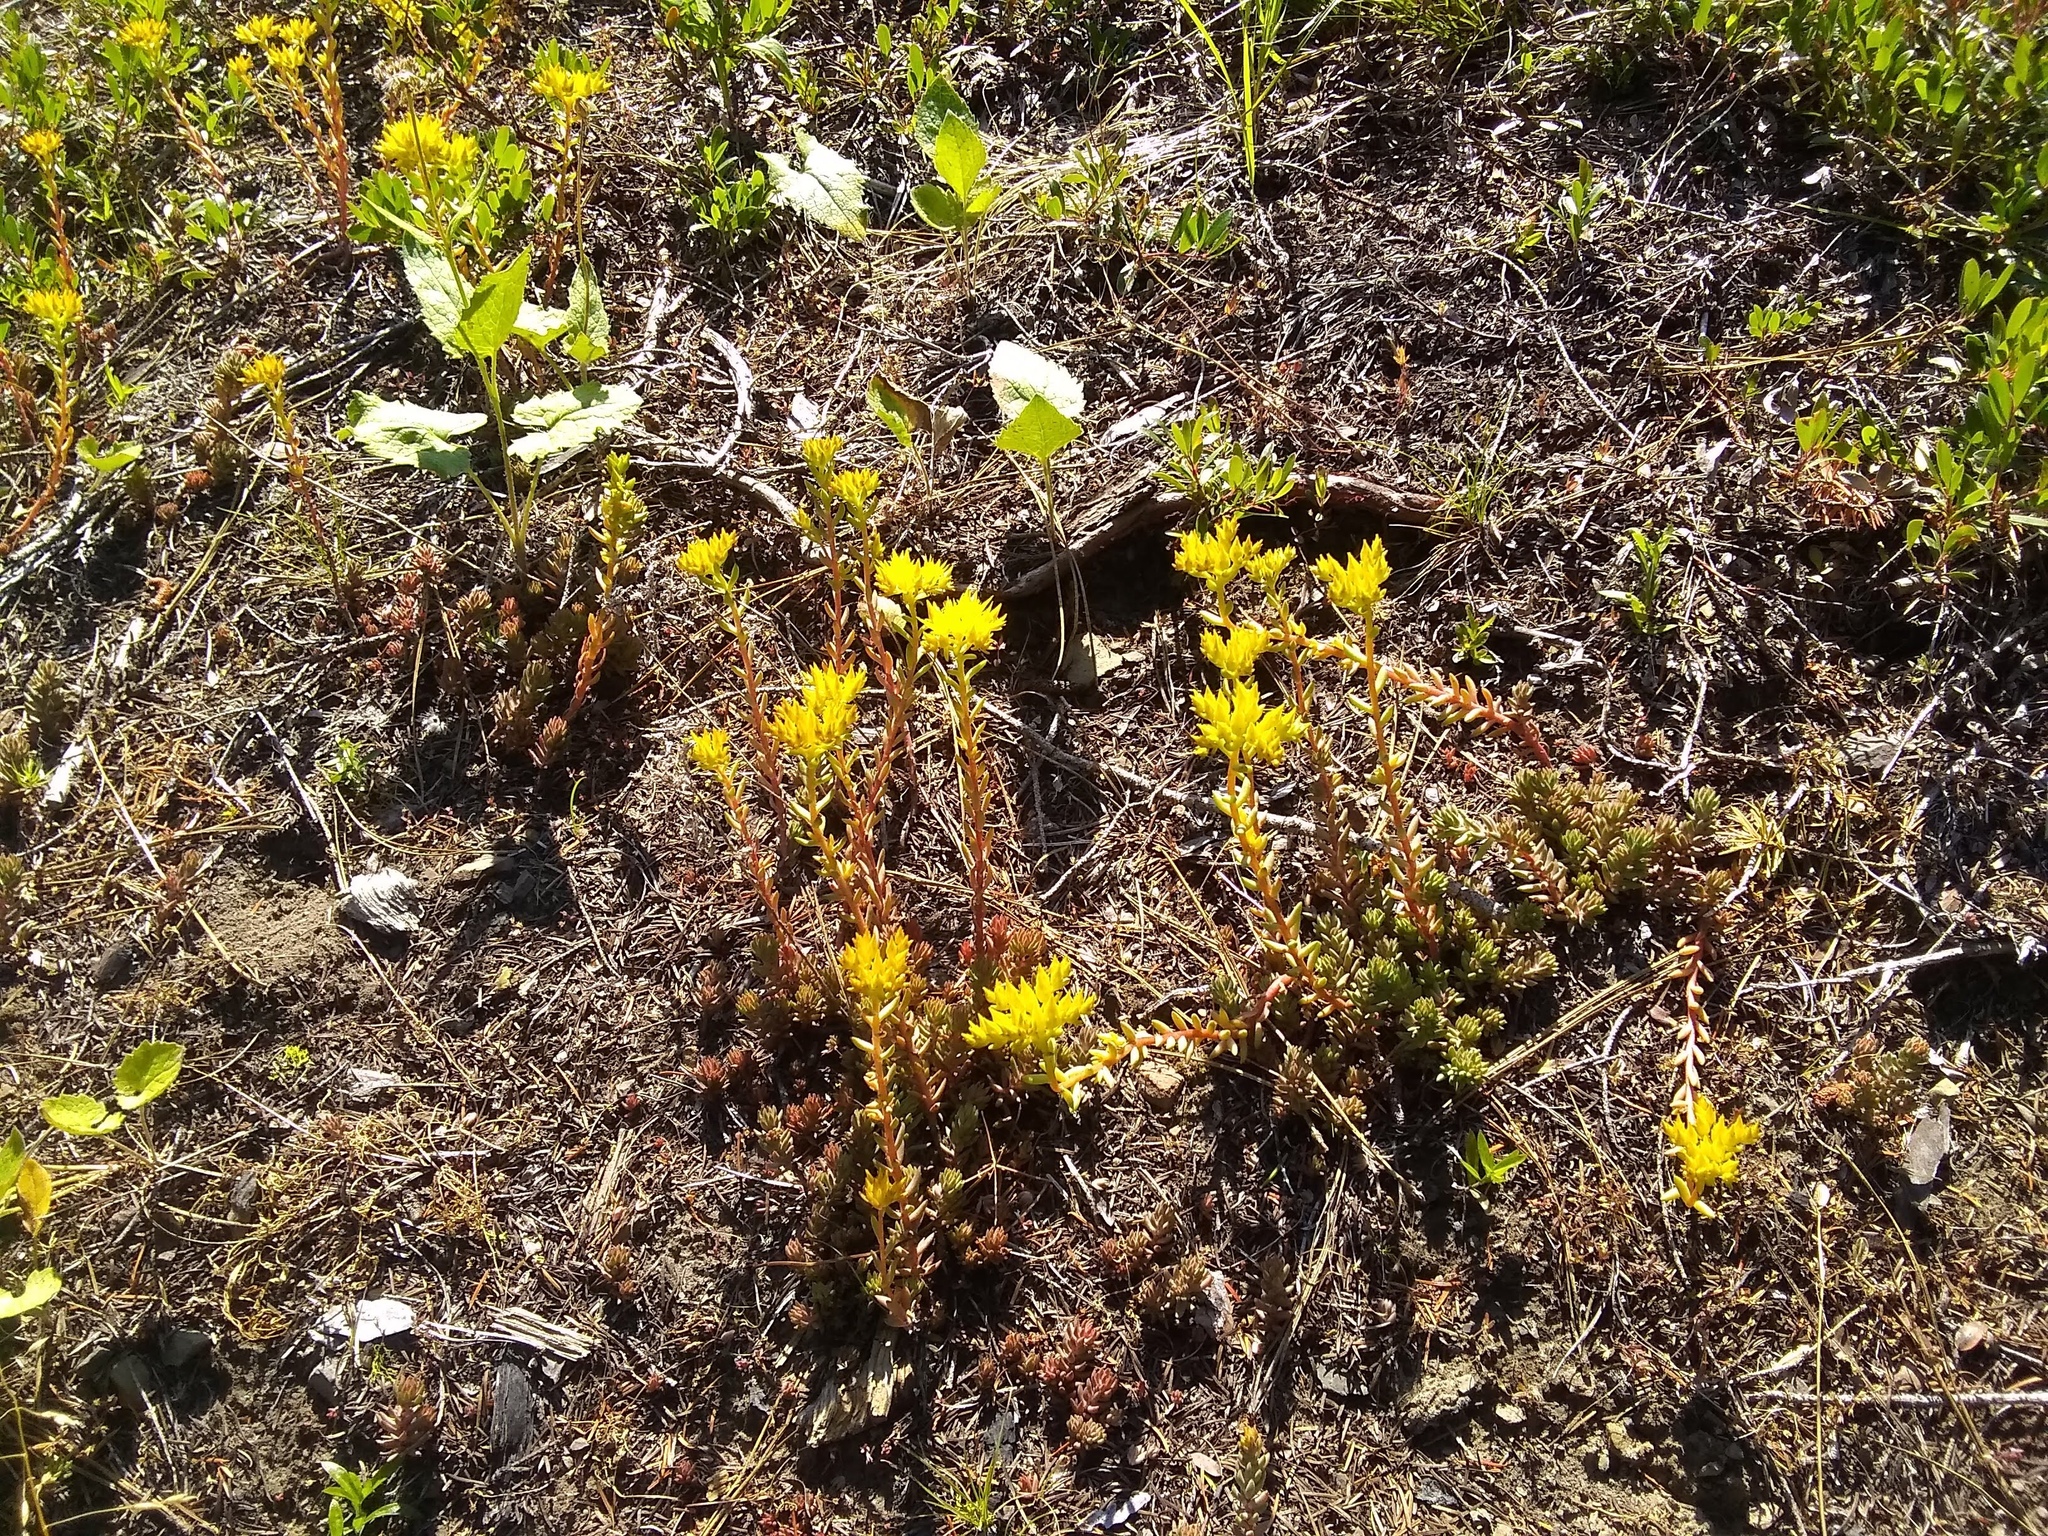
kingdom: Plantae
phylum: Tracheophyta
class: Magnoliopsida
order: Saxifragales
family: Crassulaceae
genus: Sedum
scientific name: Sedum lanceolatum
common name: Common stonecrop
